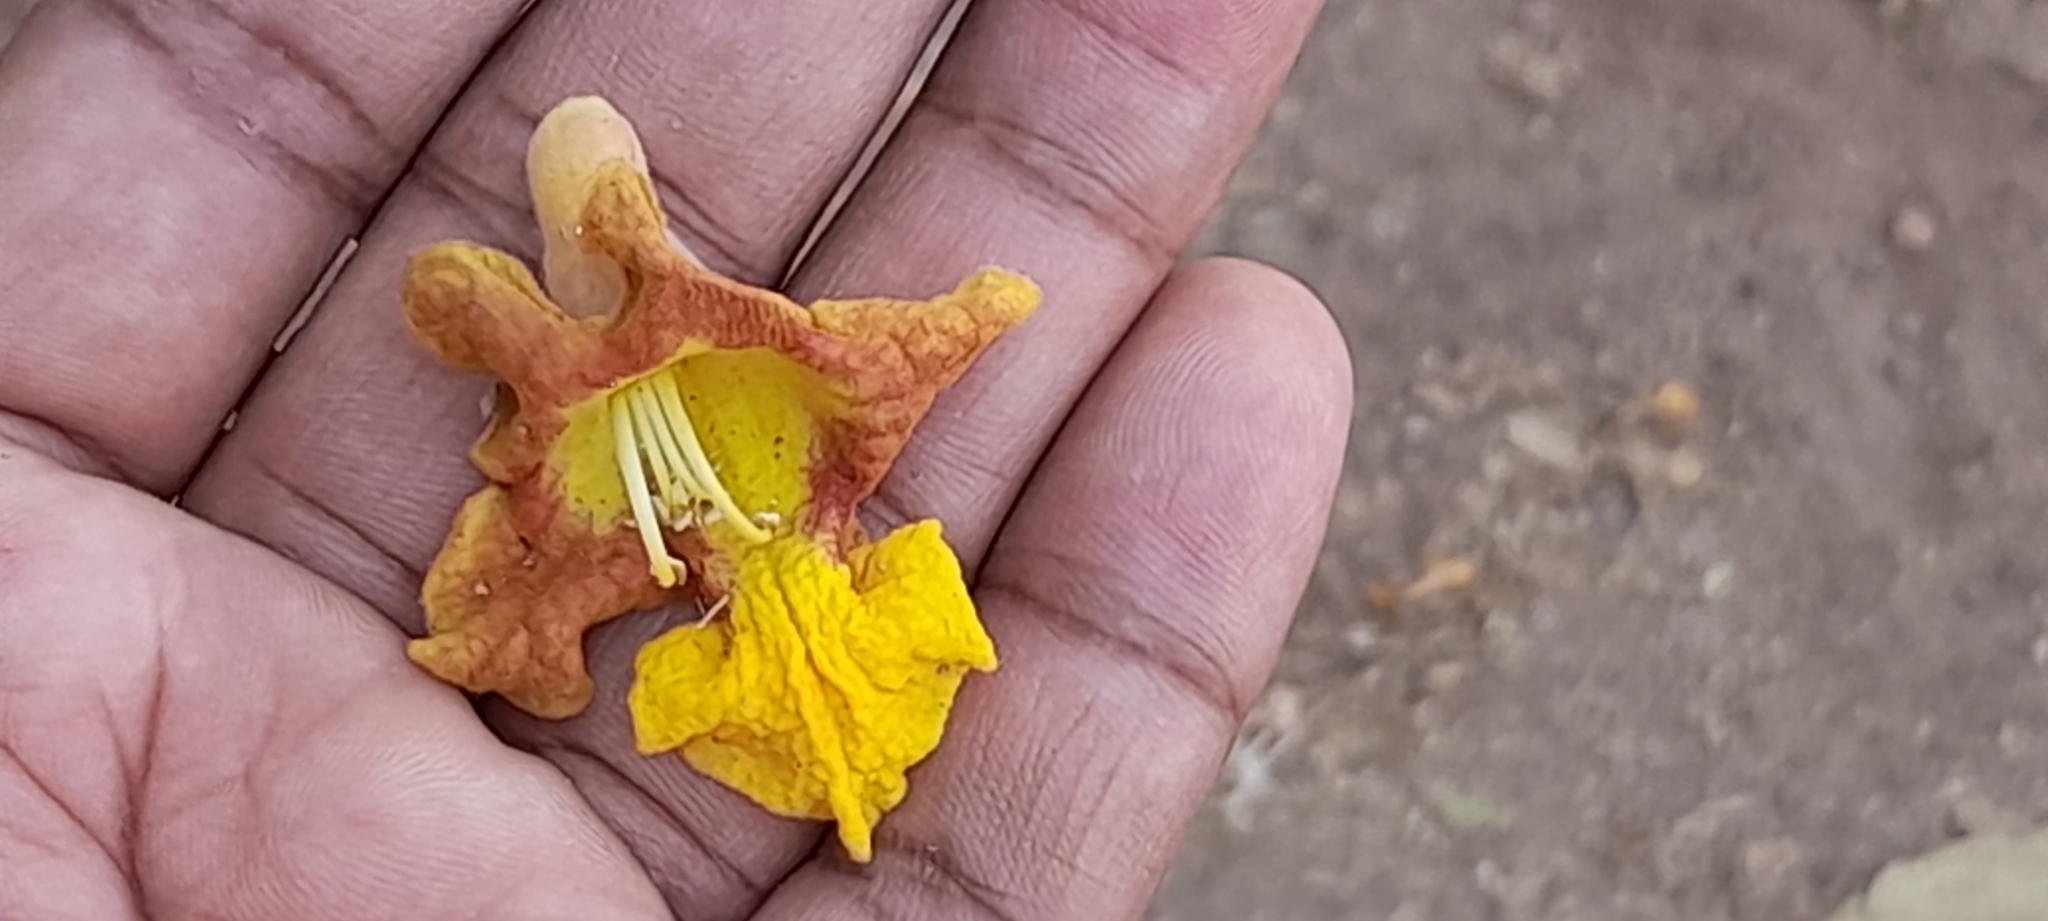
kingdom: Plantae
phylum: Tracheophyta
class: Magnoliopsida
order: Lamiales
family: Lamiaceae
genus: Gmelina
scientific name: Gmelina arborea
